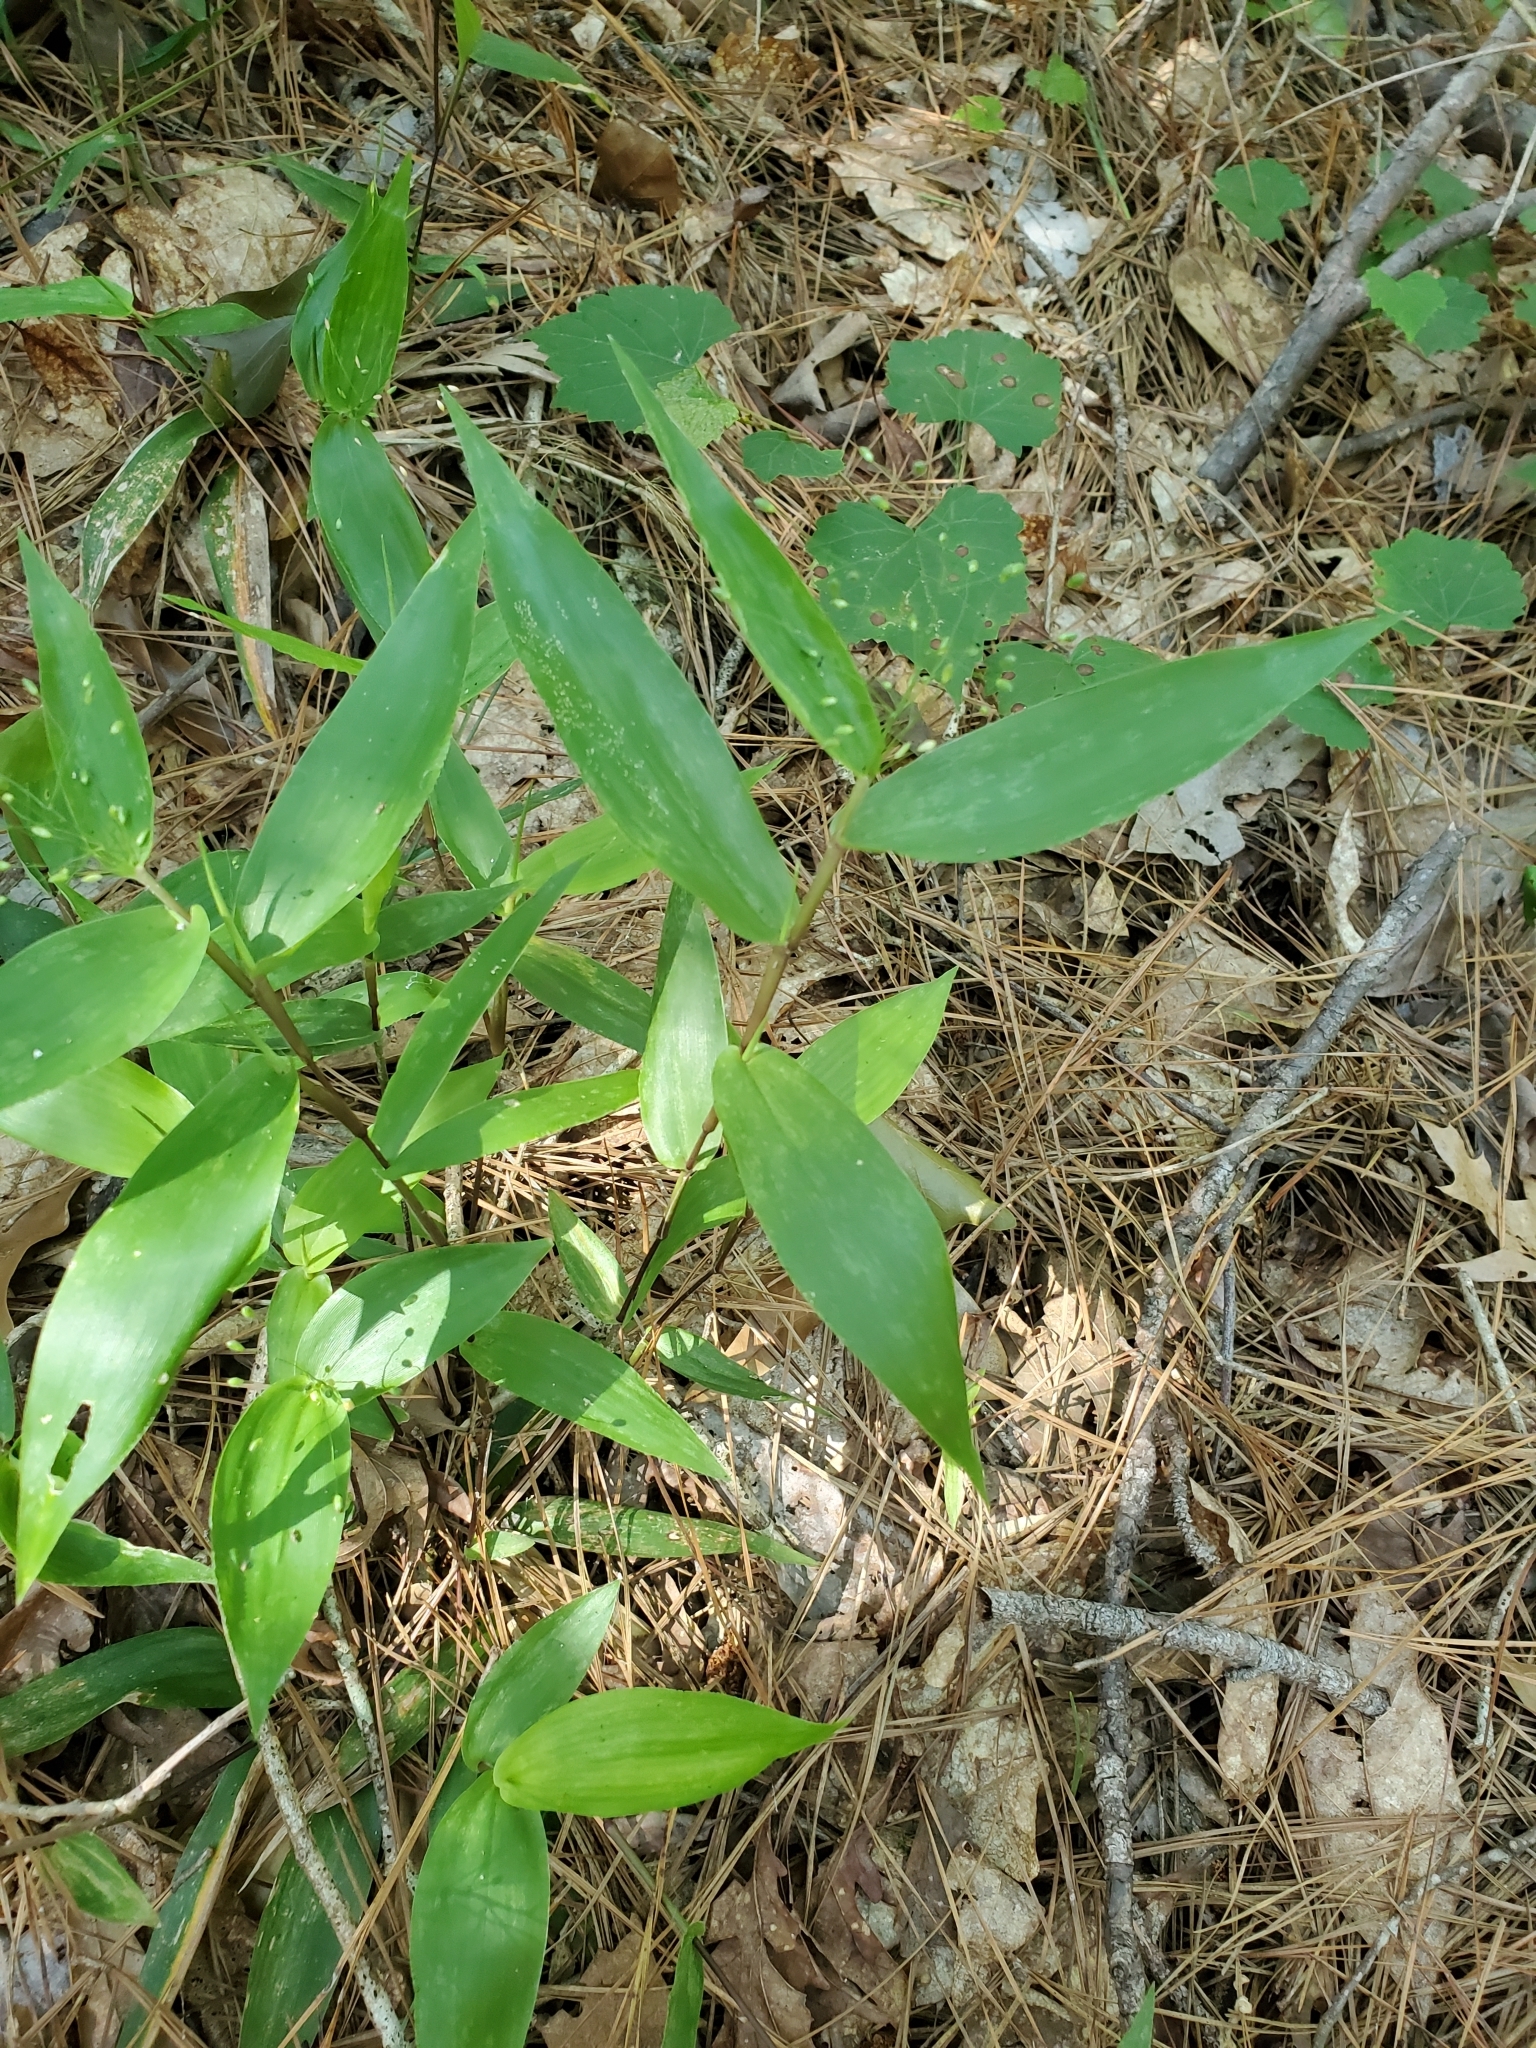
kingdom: Plantae
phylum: Tracheophyta
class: Liliopsida
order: Poales
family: Poaceae
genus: Dichanthelium
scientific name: Dichanthelium commutatum
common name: Variable witchgrass
